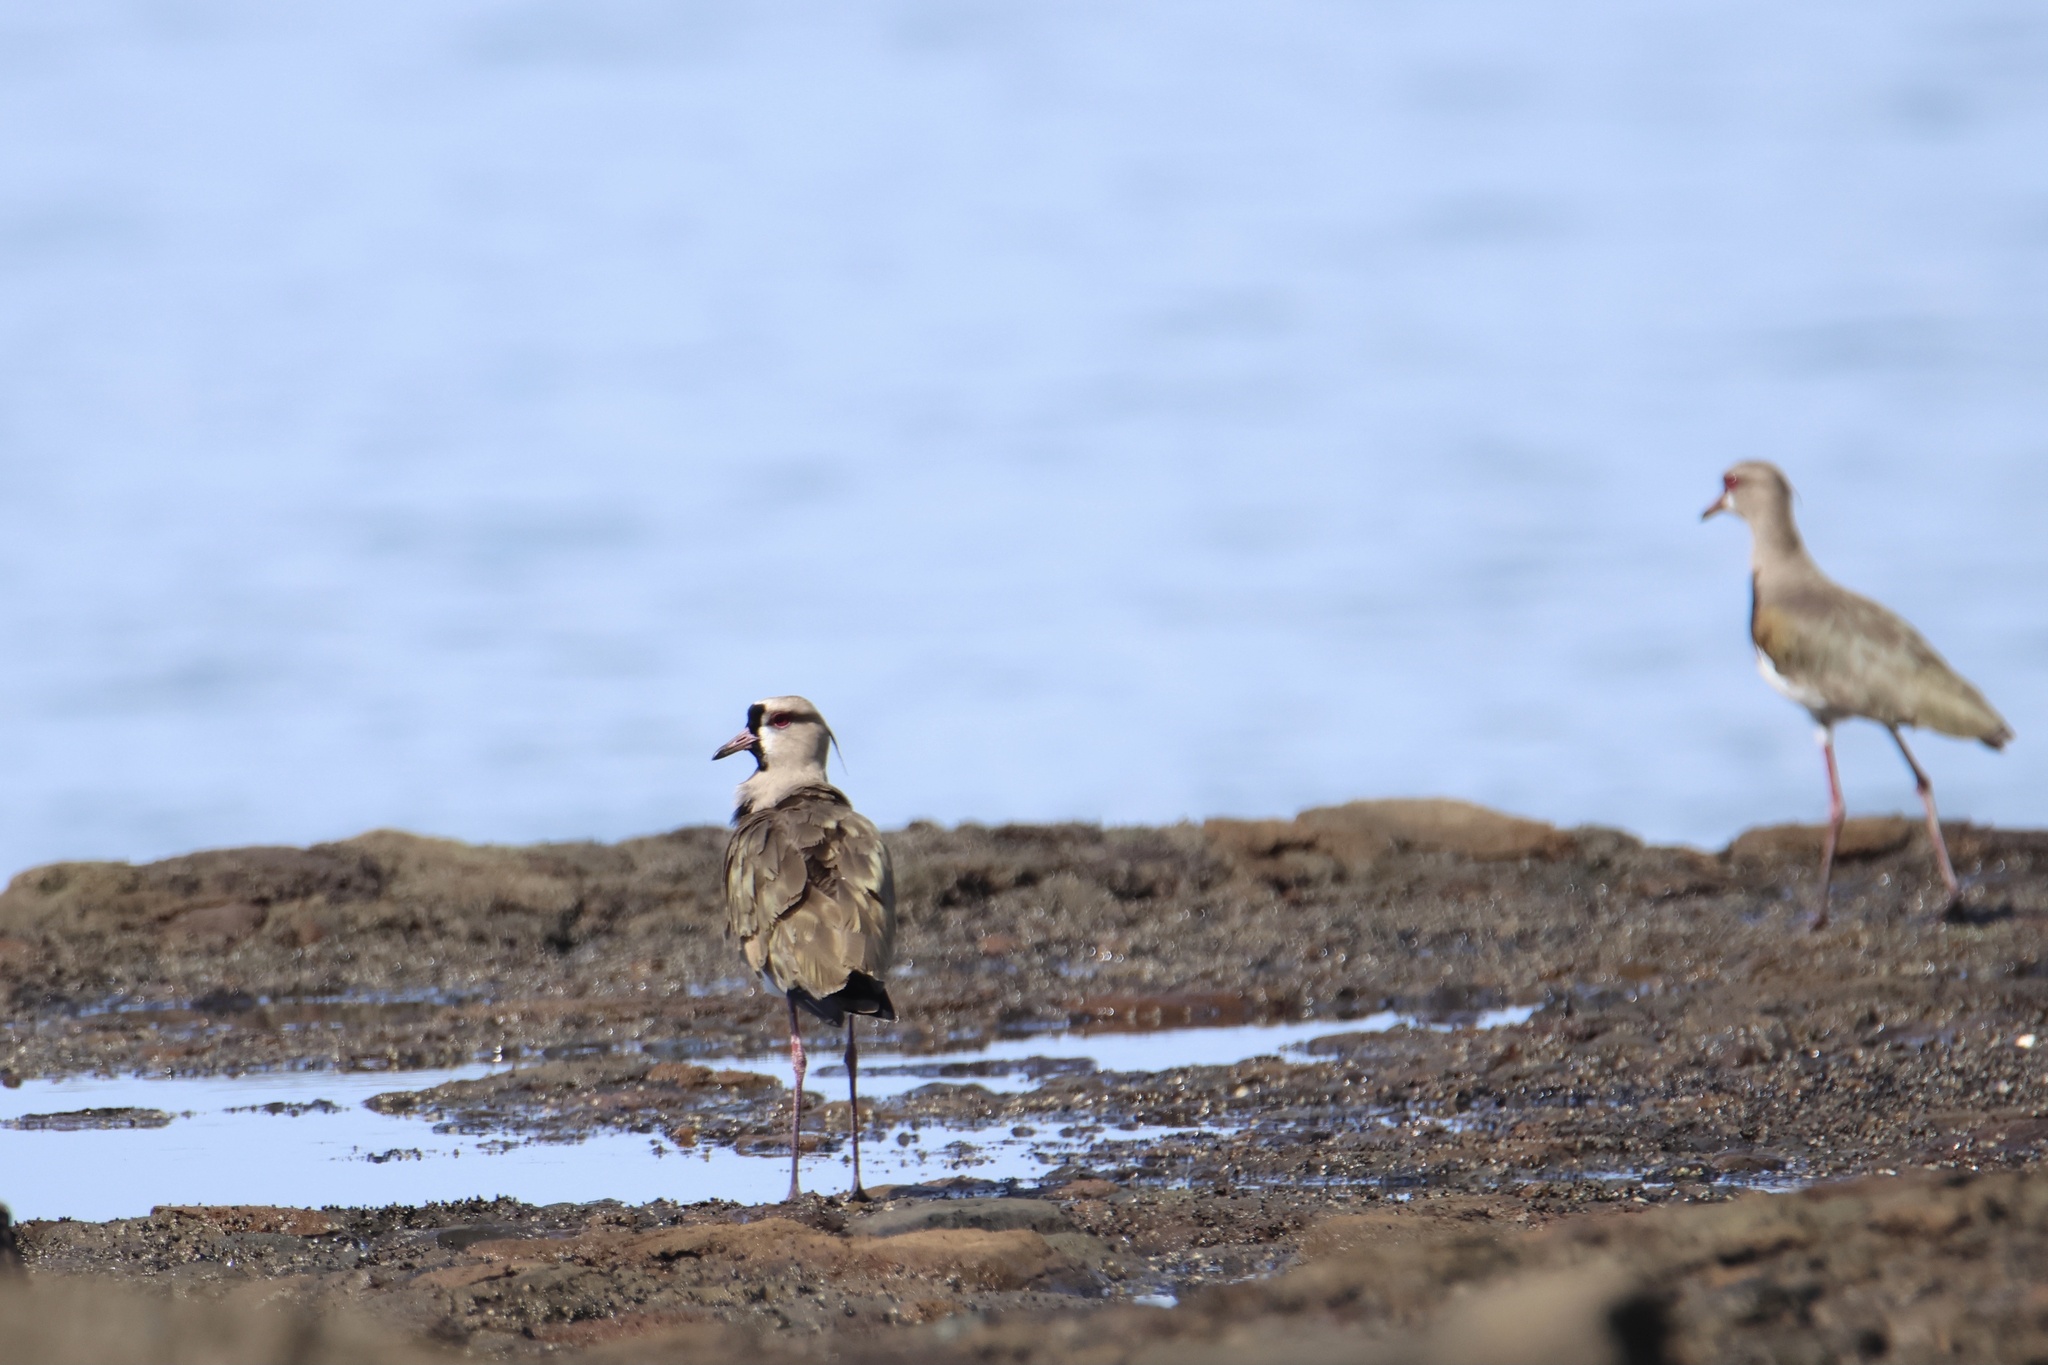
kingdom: Animalia
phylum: Chordata
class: Aves
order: Charadriiformes
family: Charadriidae
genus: Vanellus
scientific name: Vanellus chilensis
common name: Southern lapwing
